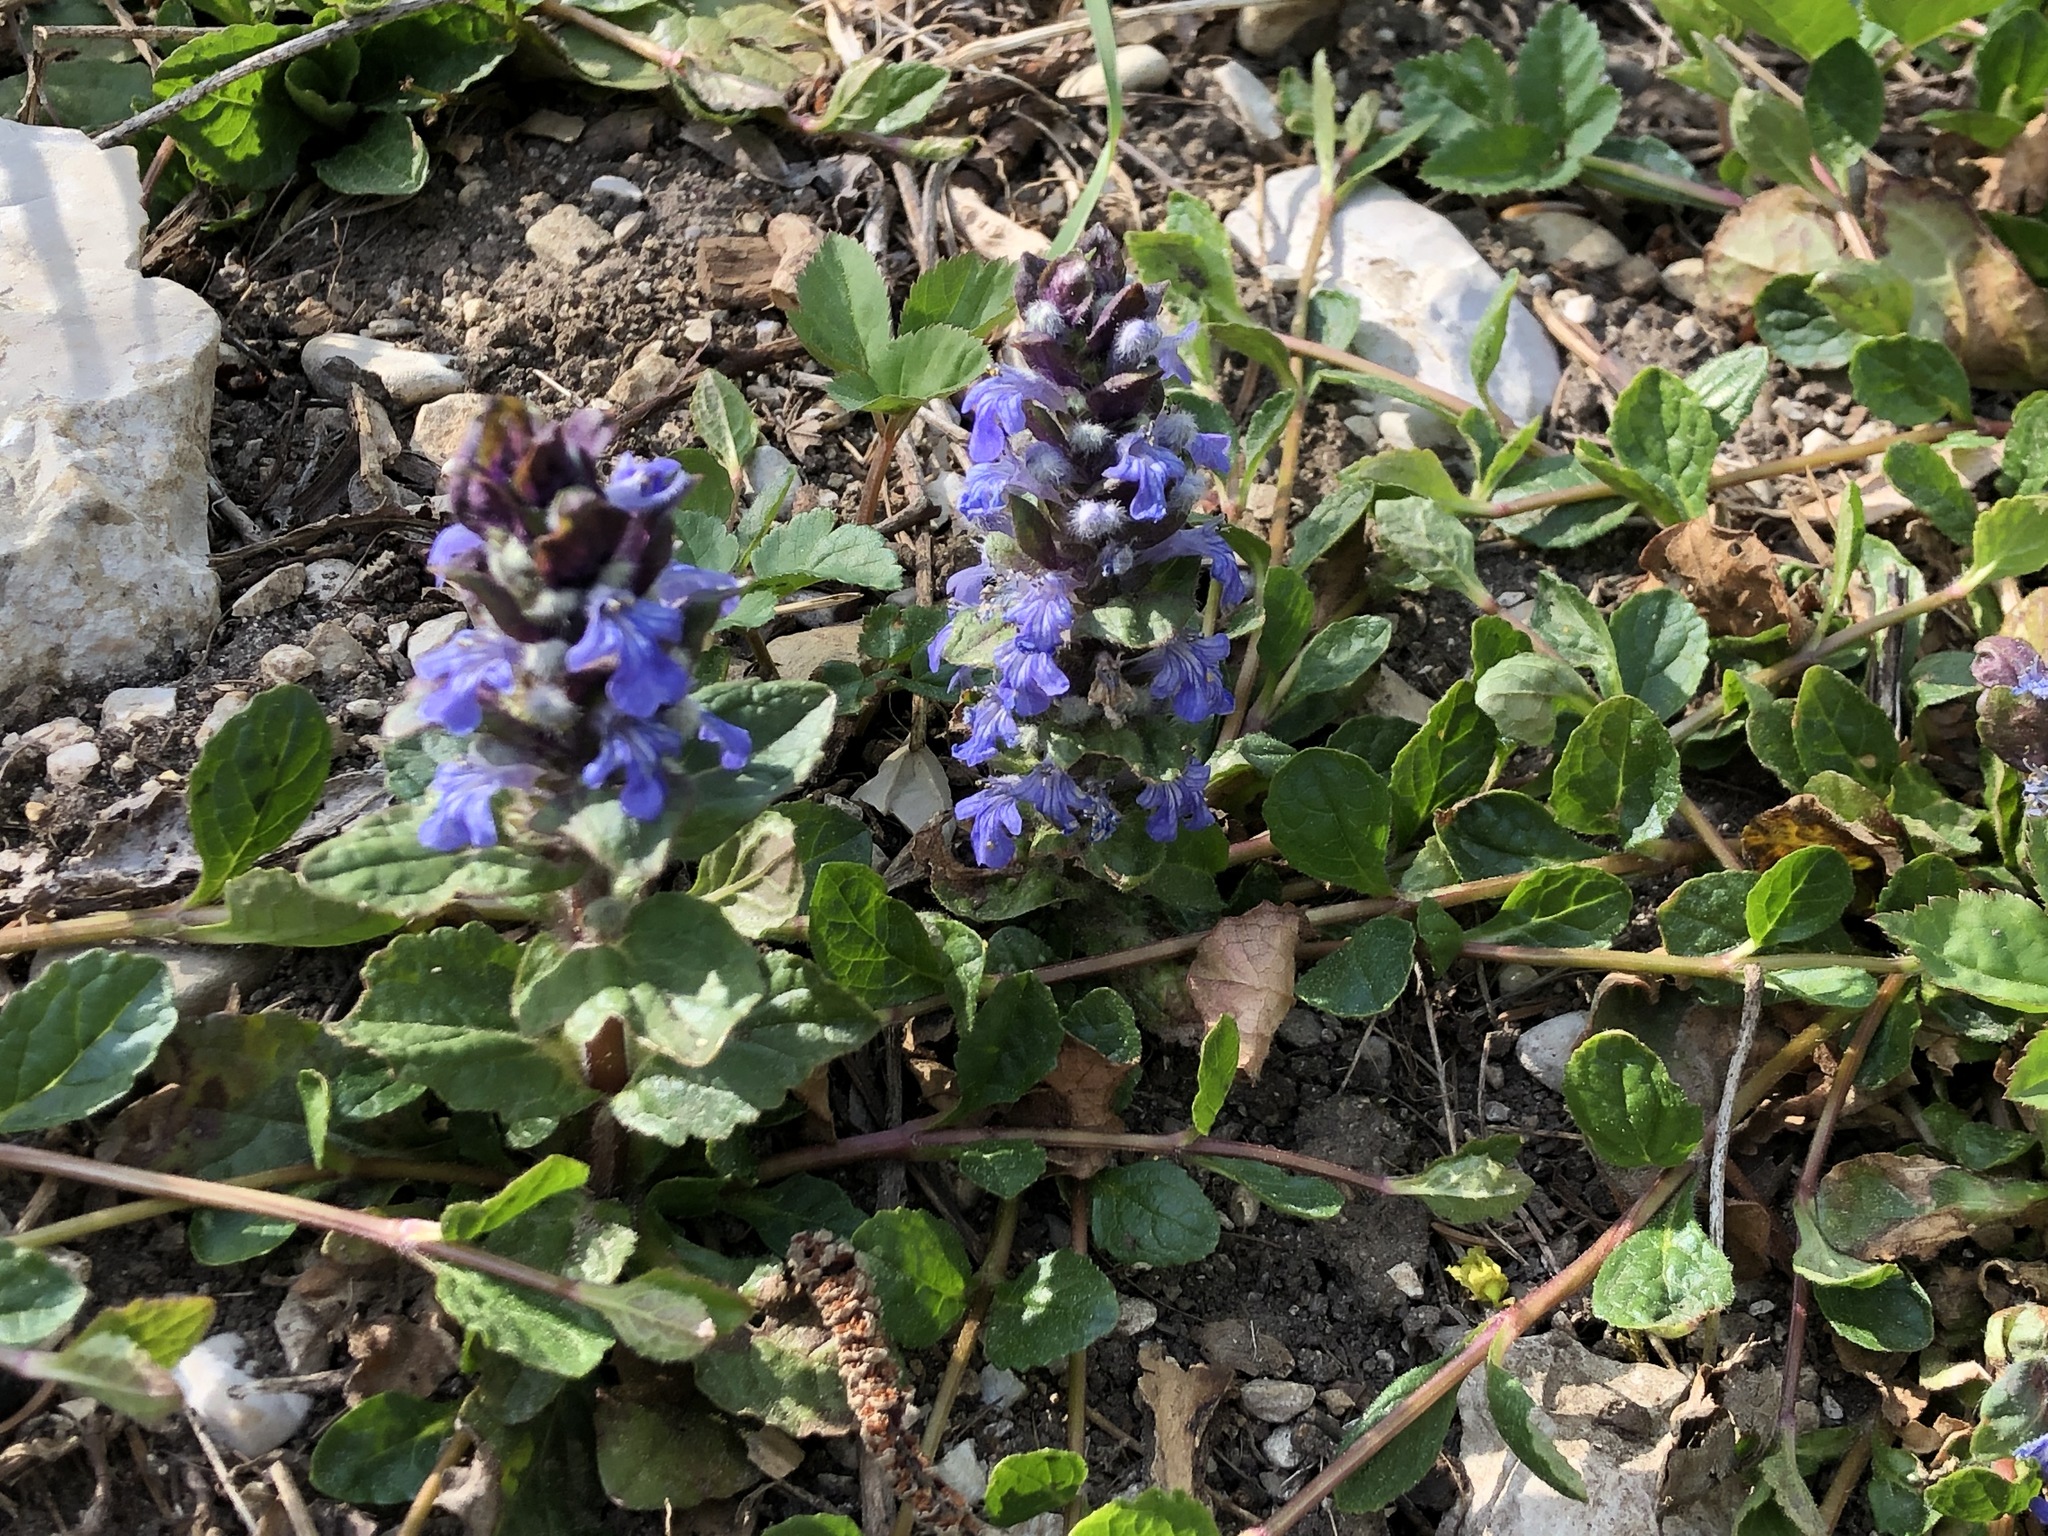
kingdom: Plantae
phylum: Tracheophyta
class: Magnoliopsida
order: Lamiales
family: Lamiaceae
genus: Ajuga
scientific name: Ajuga reptans
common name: Bugle
